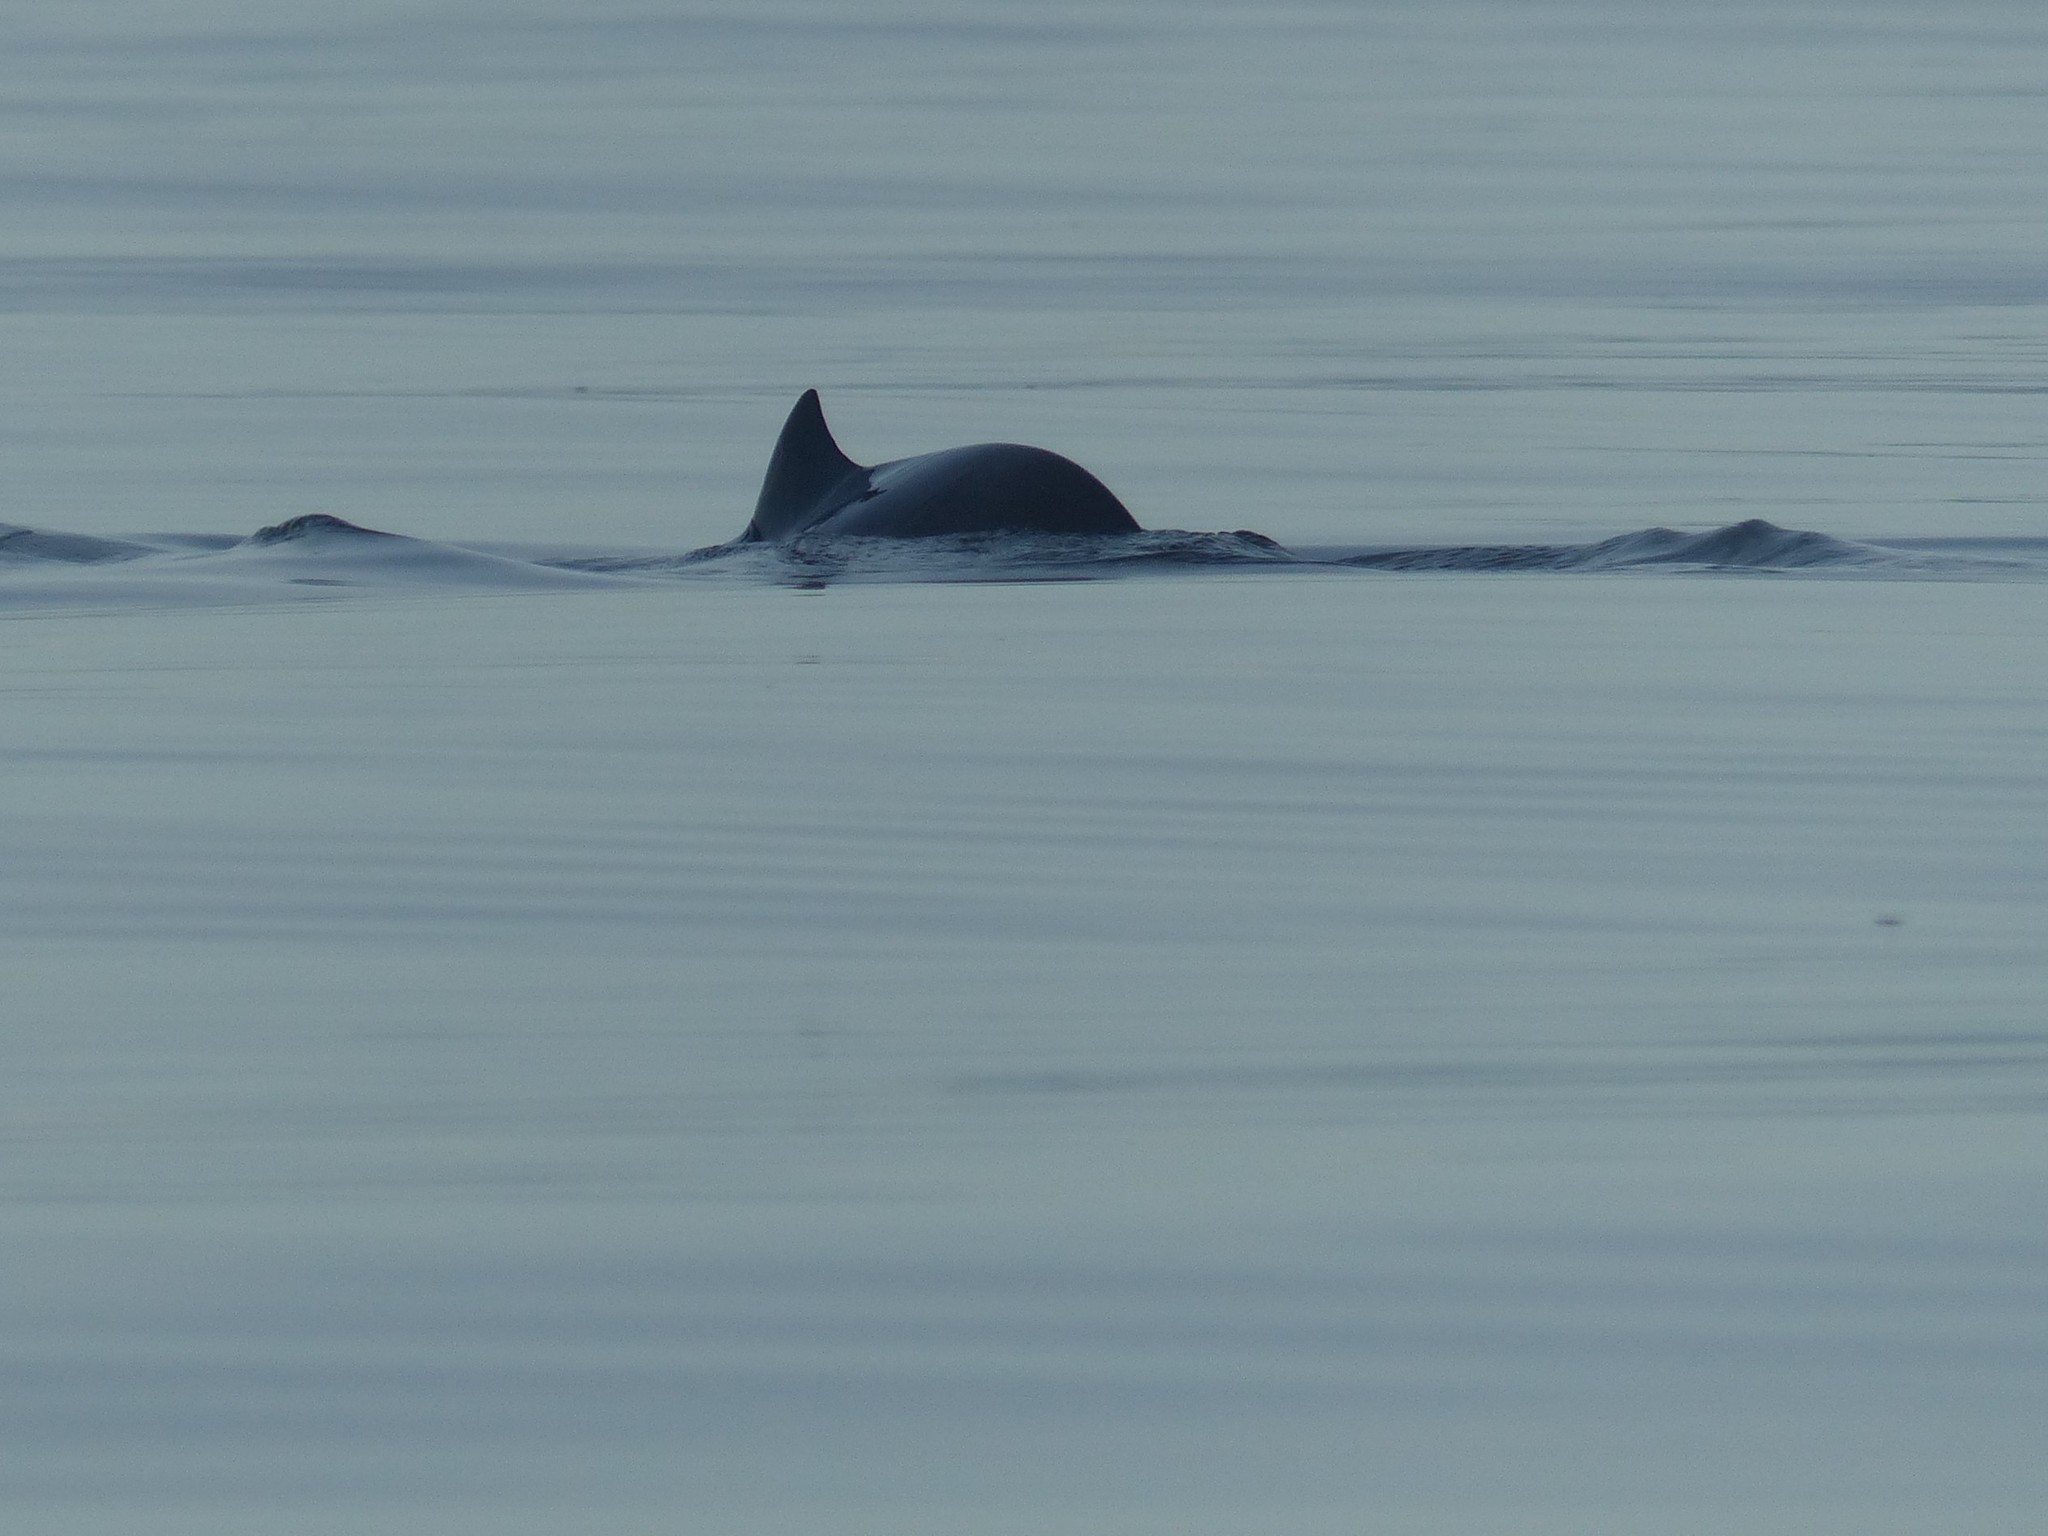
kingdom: Animalia
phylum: Chordata
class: Mammalia
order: Cetacea
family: Phocoenidae
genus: Phocoena
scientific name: Phocoena phocoena
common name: Harbor porpoise
